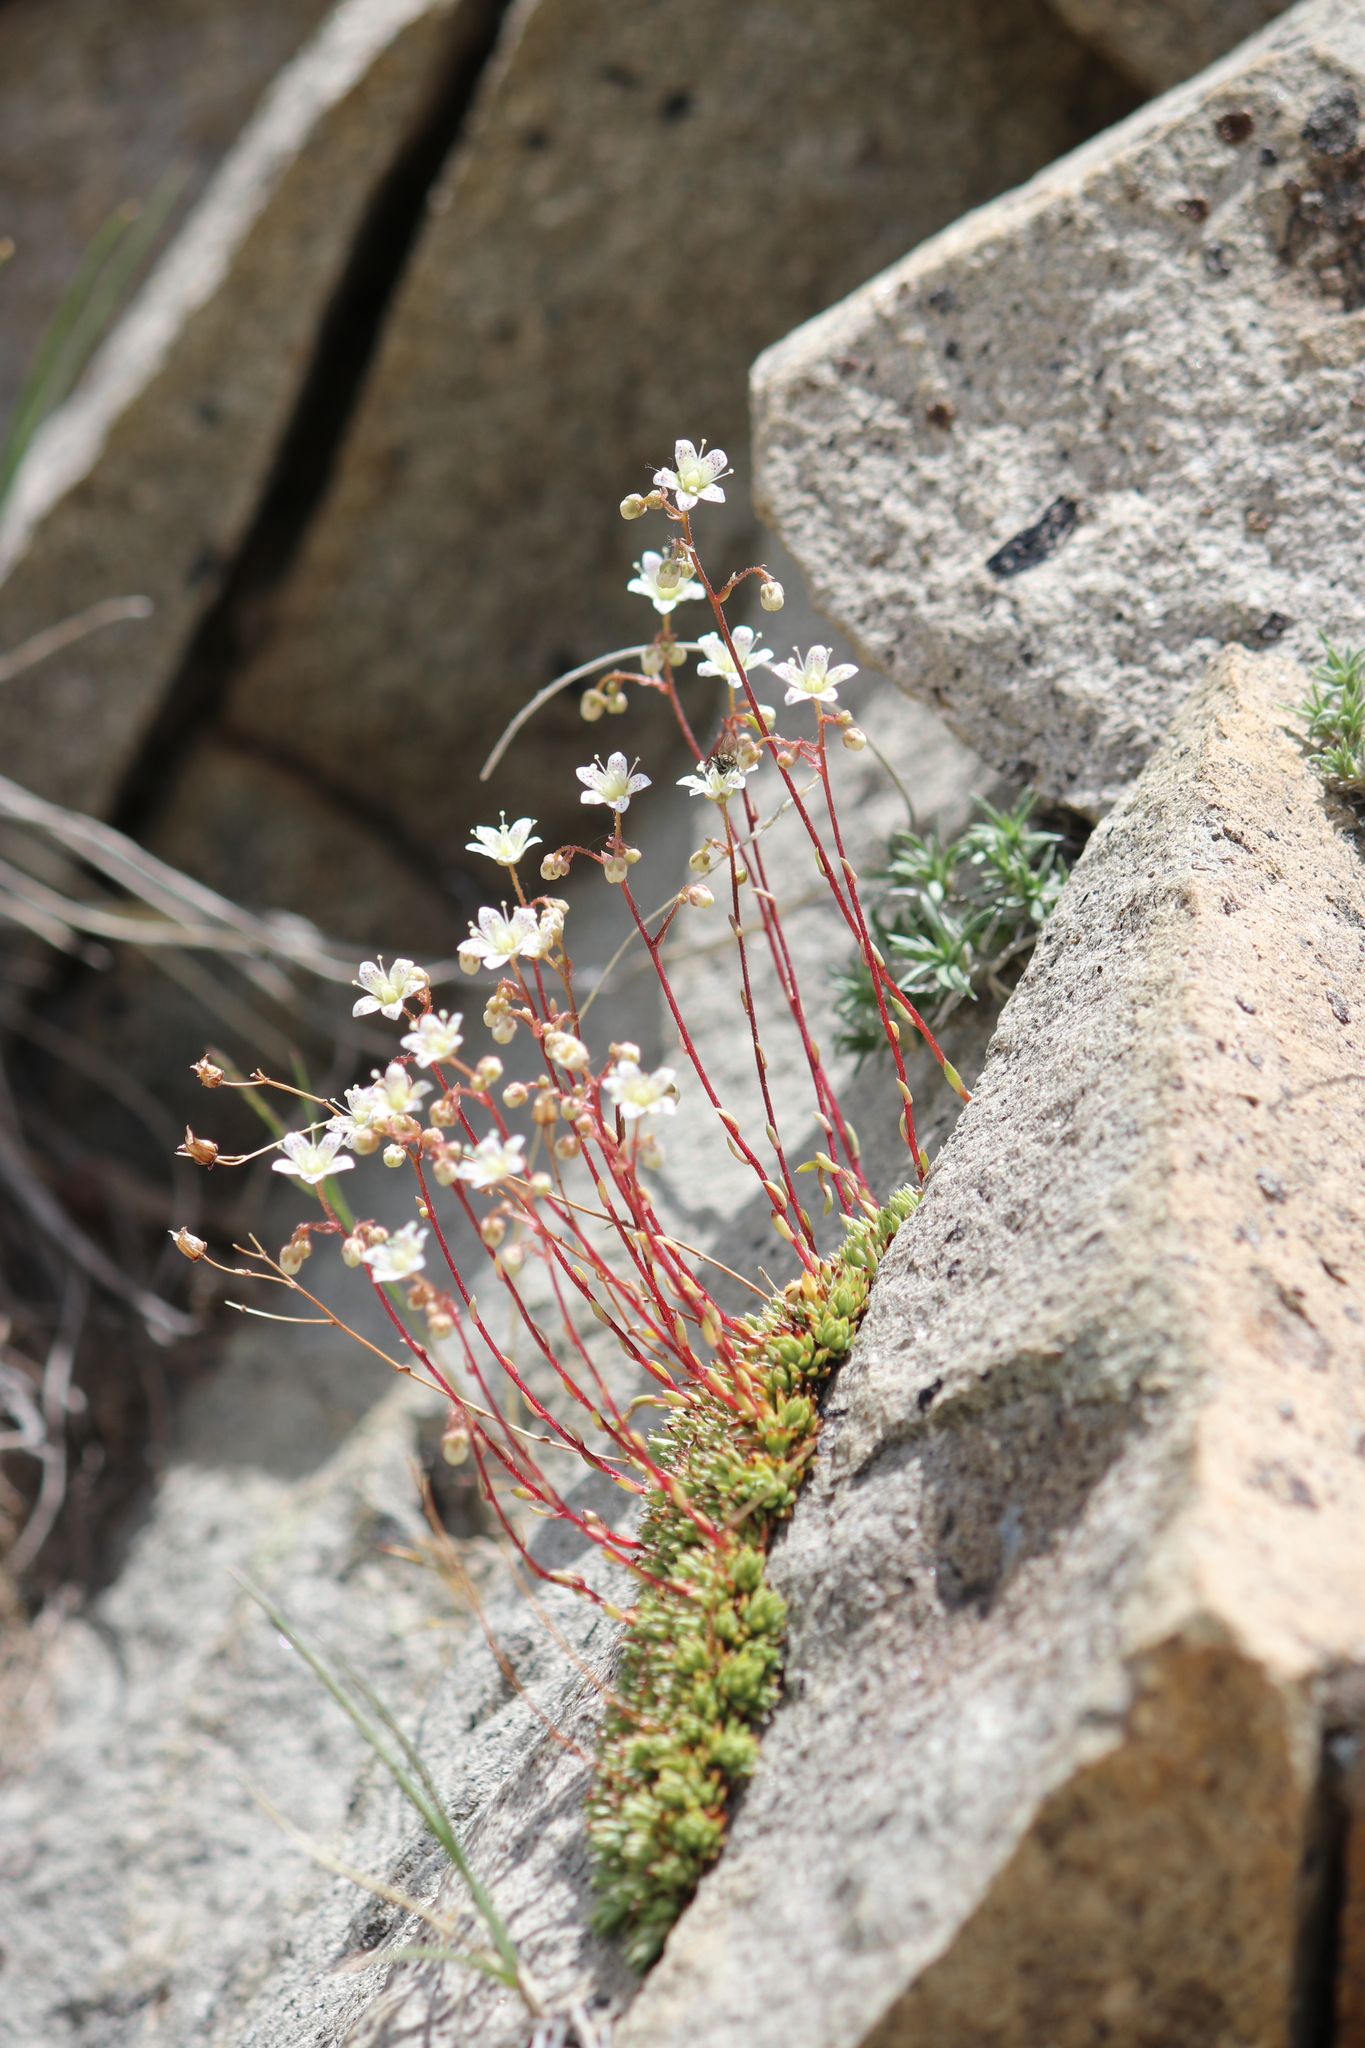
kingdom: Plantae
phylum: Tracheophyta
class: Magnoliopsida
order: Saxifragales
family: Saxifragaceae
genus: Saxifraga
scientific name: Saxifraga bronchialis
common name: Matted saxifrage
